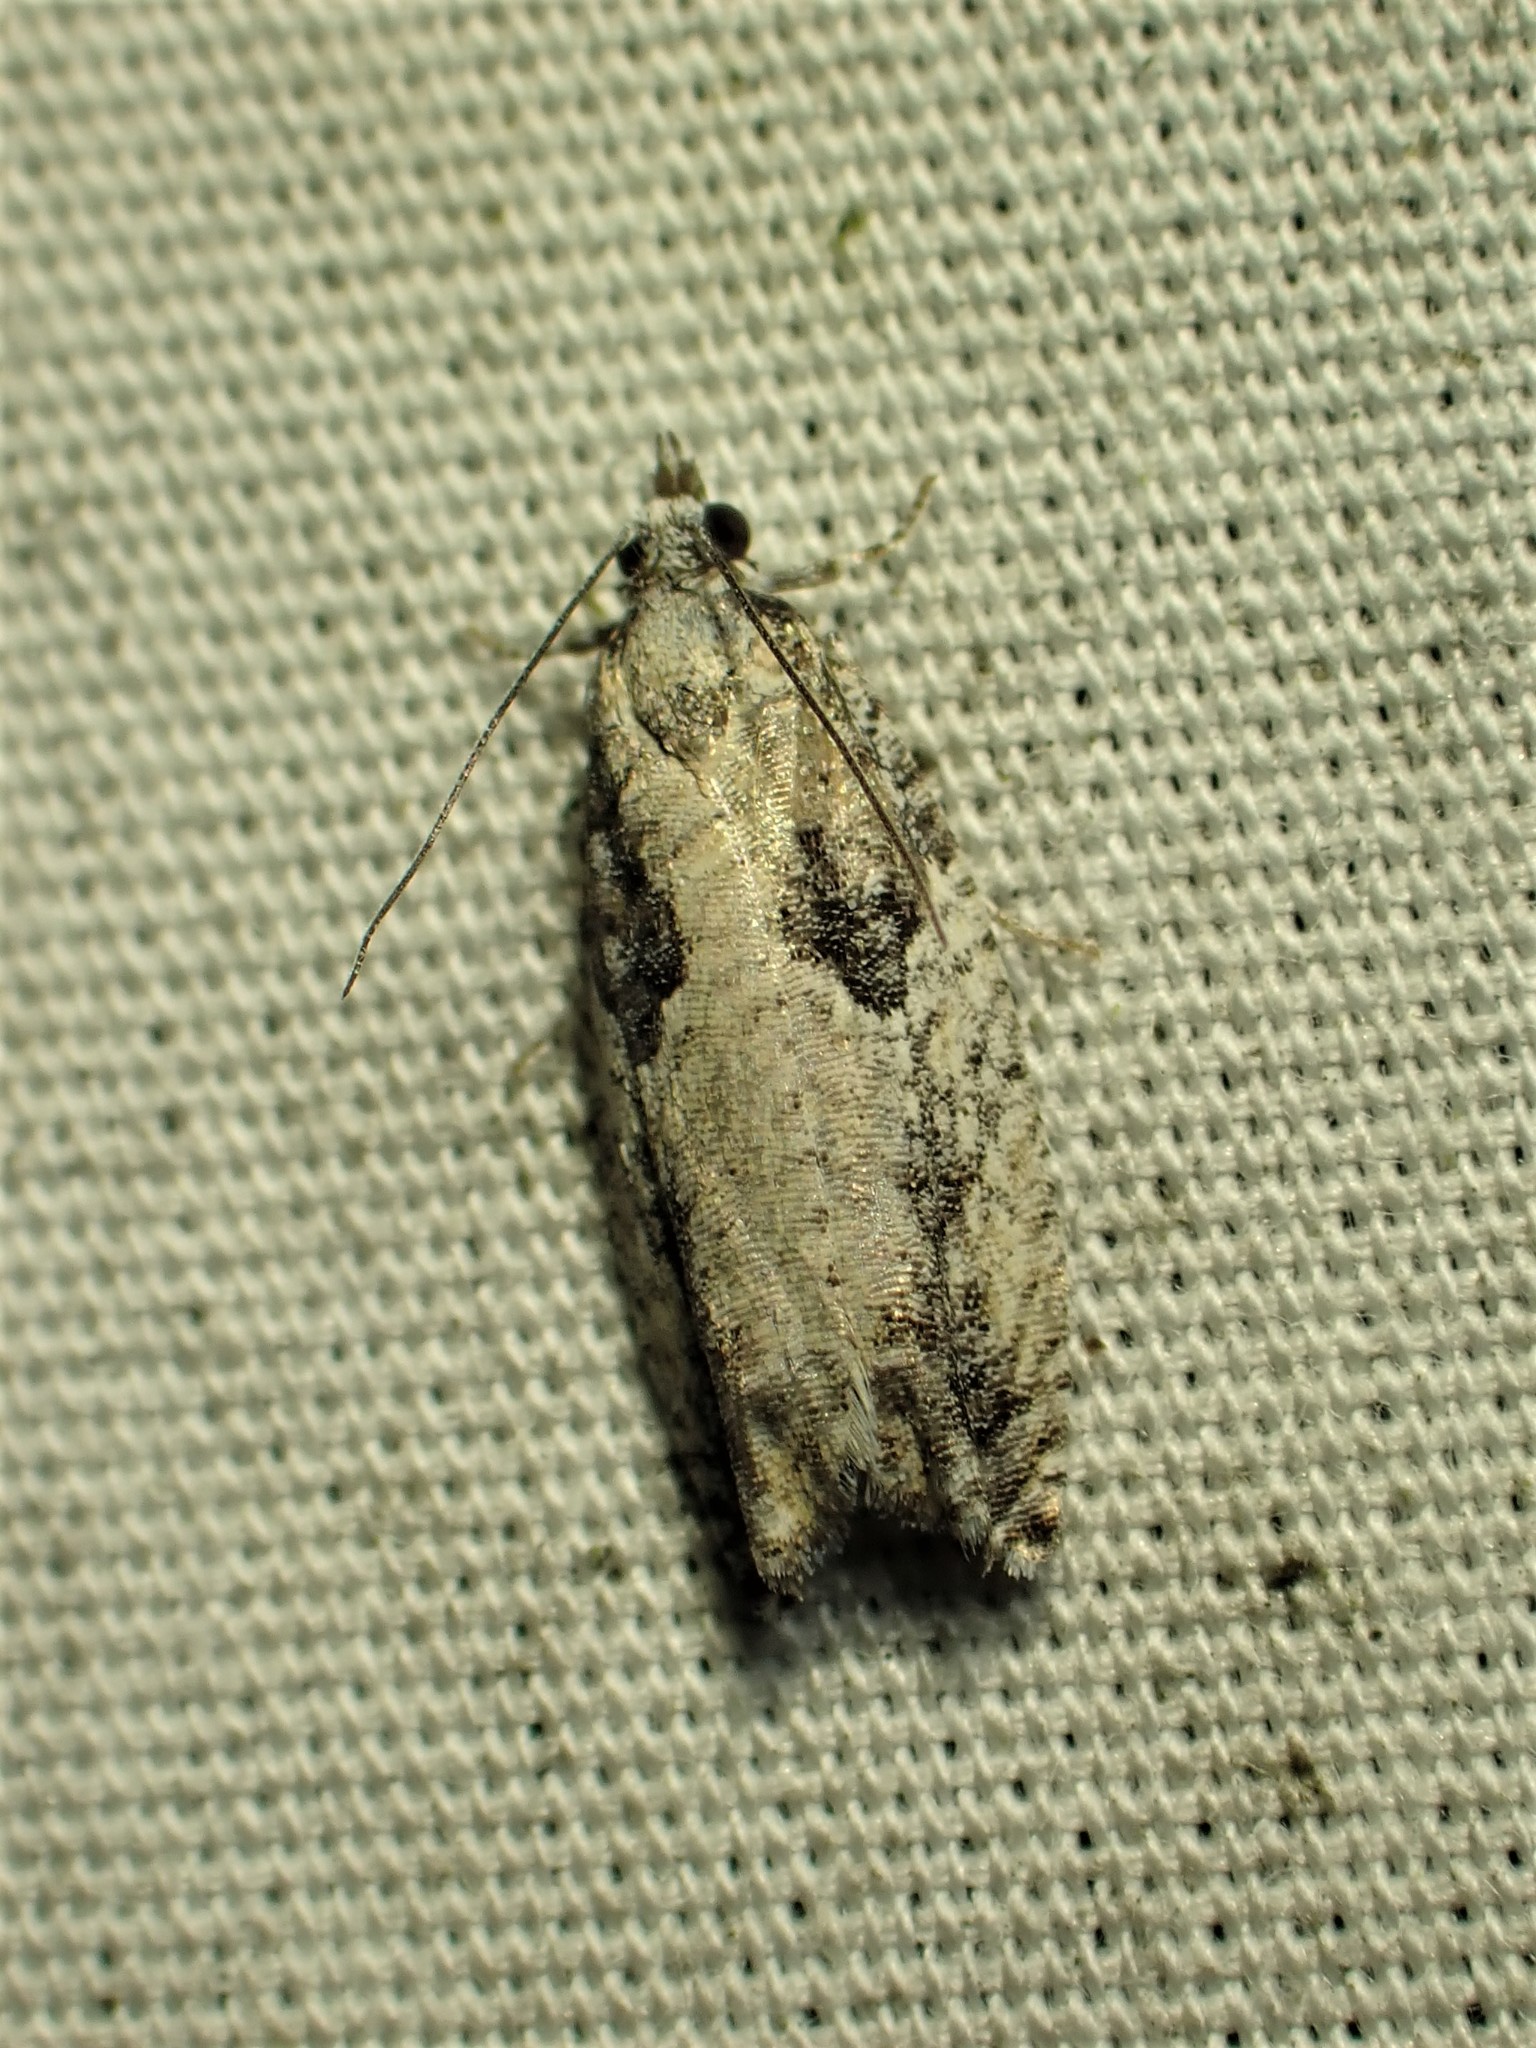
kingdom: Animalia
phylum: Arthropoda
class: Insecta
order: Lepidoptera
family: Tortricidae
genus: Epinotia
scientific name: Epinotia cinereana
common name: Grey aspen bell
